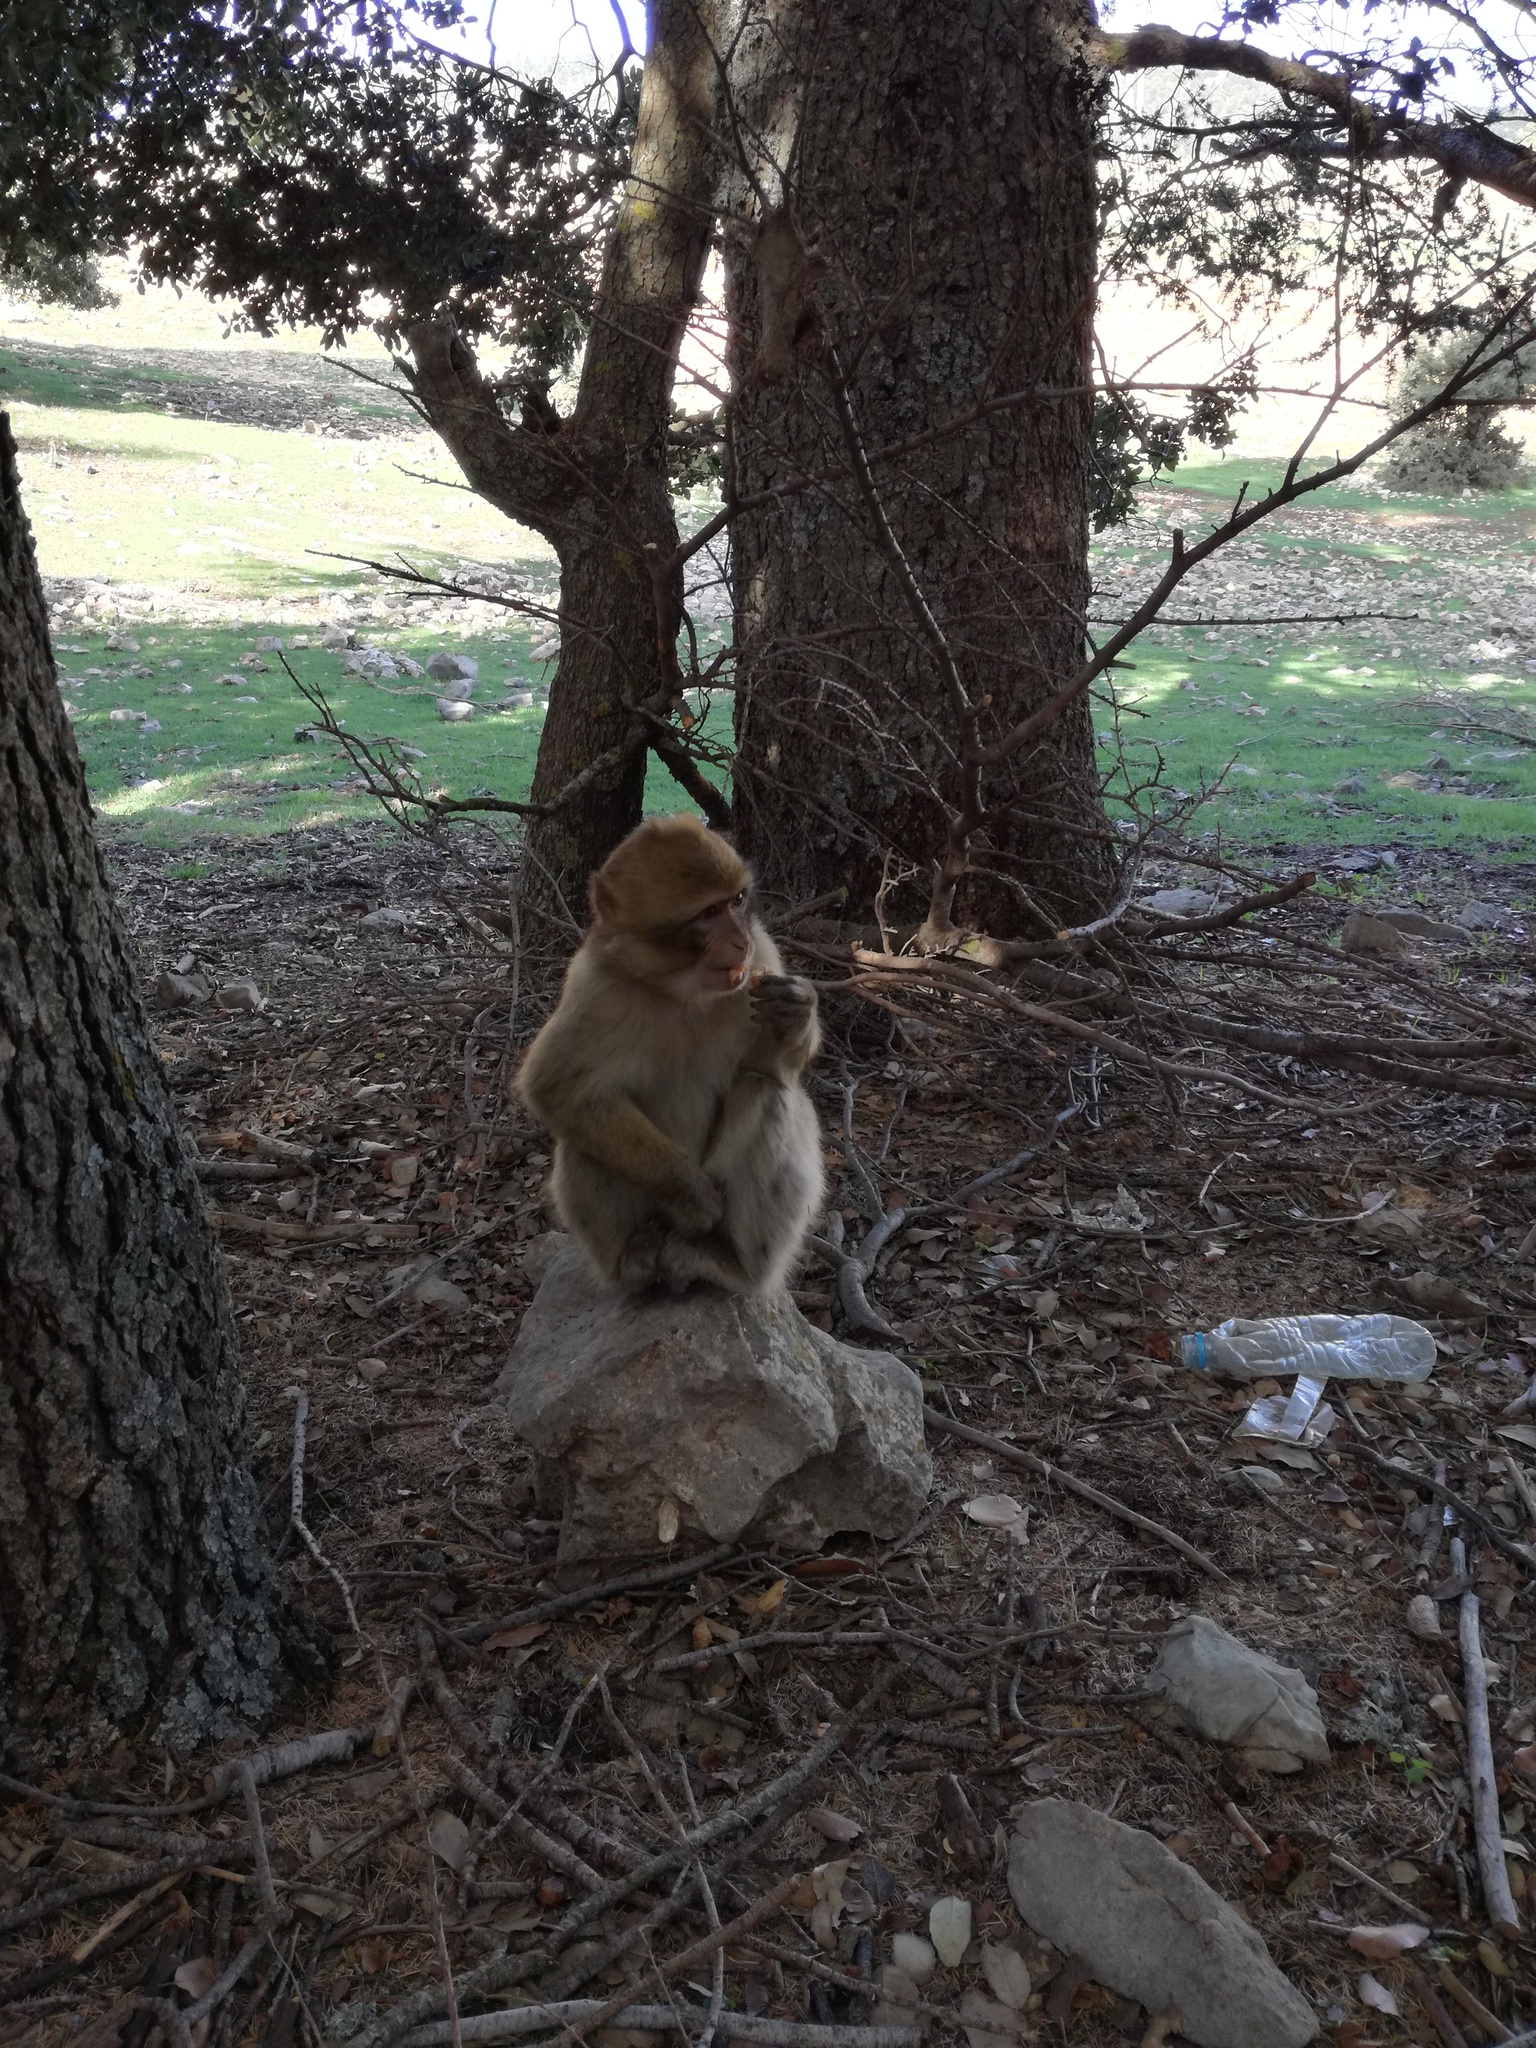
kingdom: Animalia
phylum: Chordata
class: Mammalia
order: Primates
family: Cercopithecidae
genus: Macaca
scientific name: Macaca sylvanus
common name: Barbary macaque
